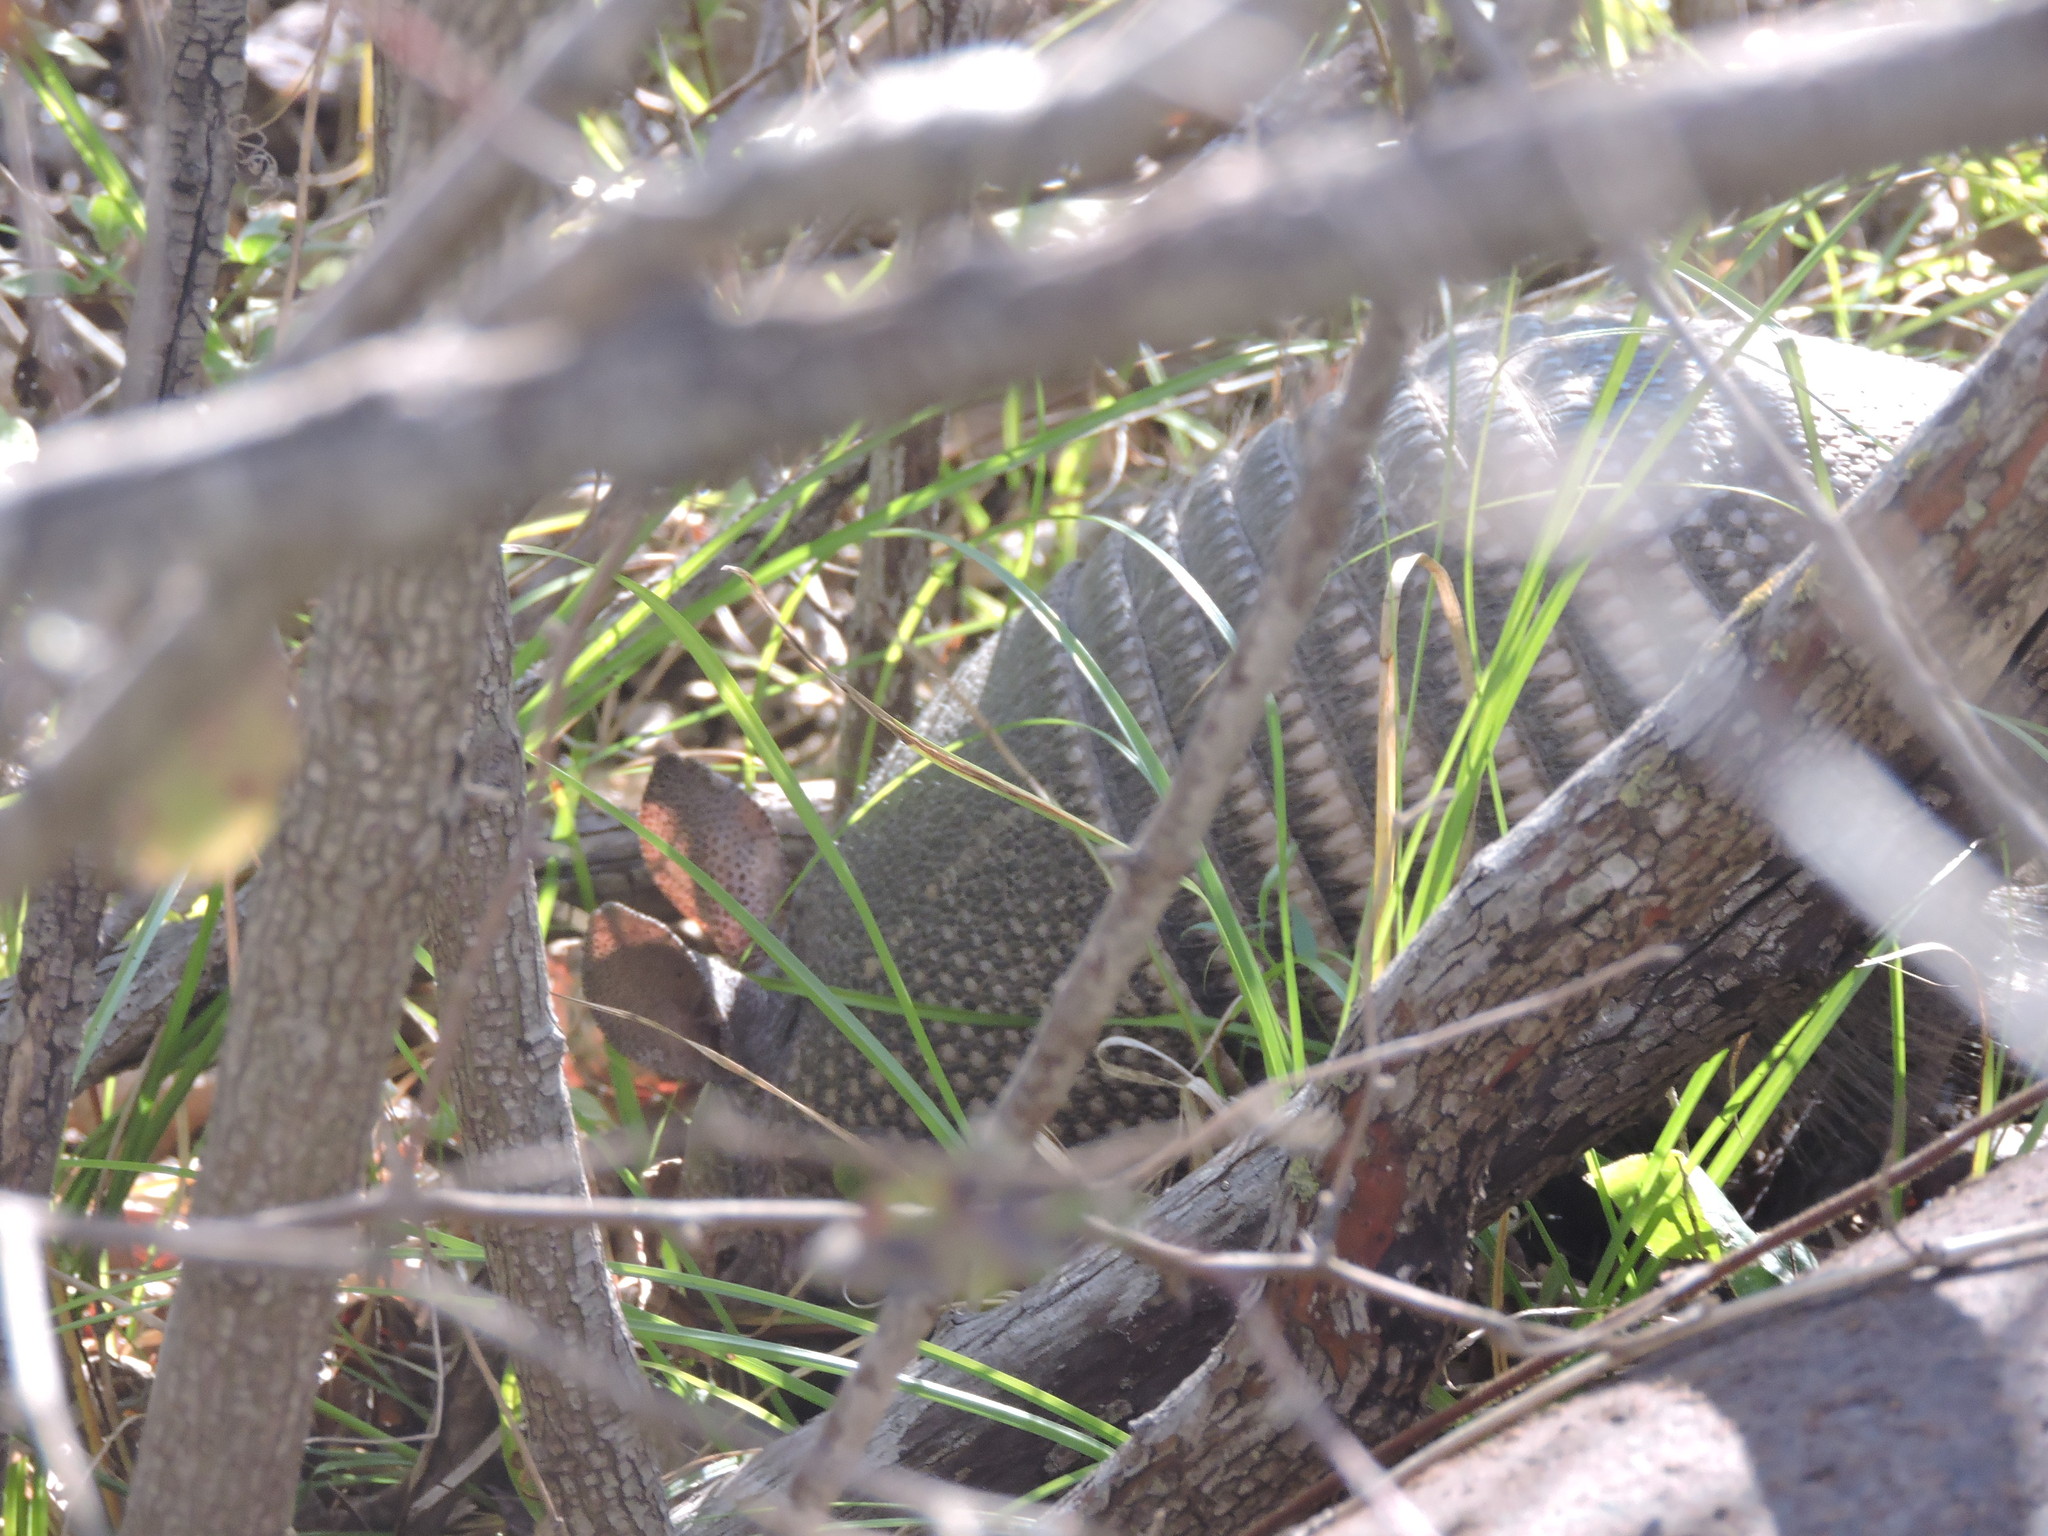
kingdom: Animalia
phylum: Chordata
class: Mammalia
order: Cingulata
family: Dasypodidae
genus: Dasypus
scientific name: Dasypus novemcinctus
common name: Nine-banded armadillo
